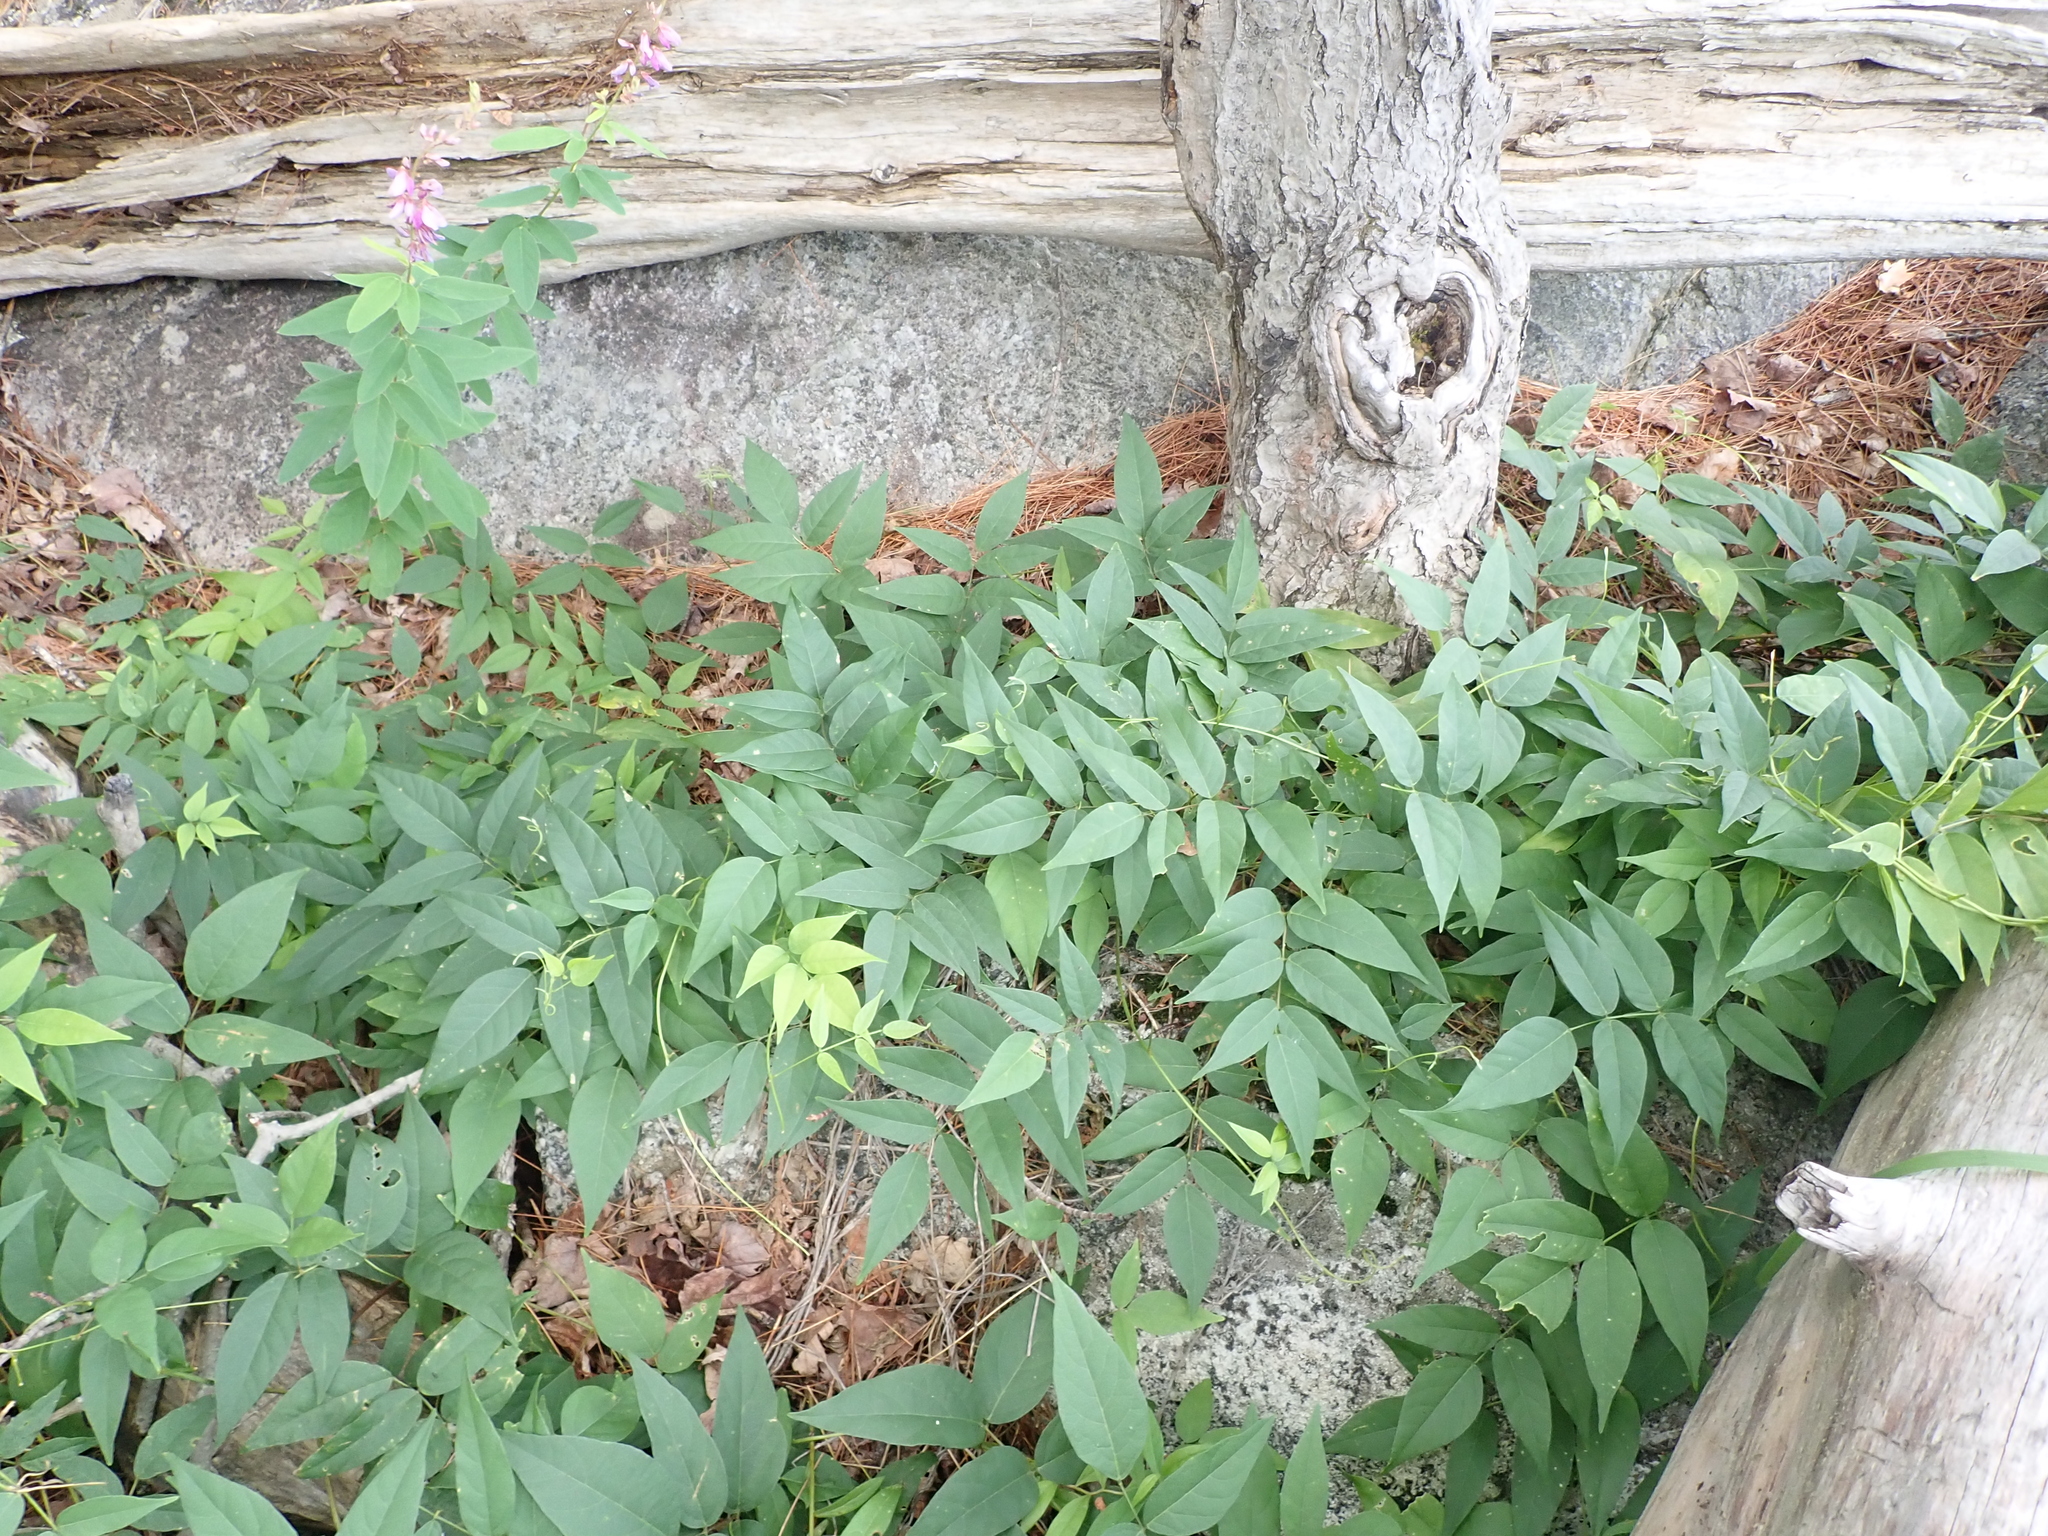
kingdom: Plantae
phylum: Tracheophyta
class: Magnoliopsida
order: Fabales
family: Fabaceae
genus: Apios
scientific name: Apios americana
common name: American potato-bean
